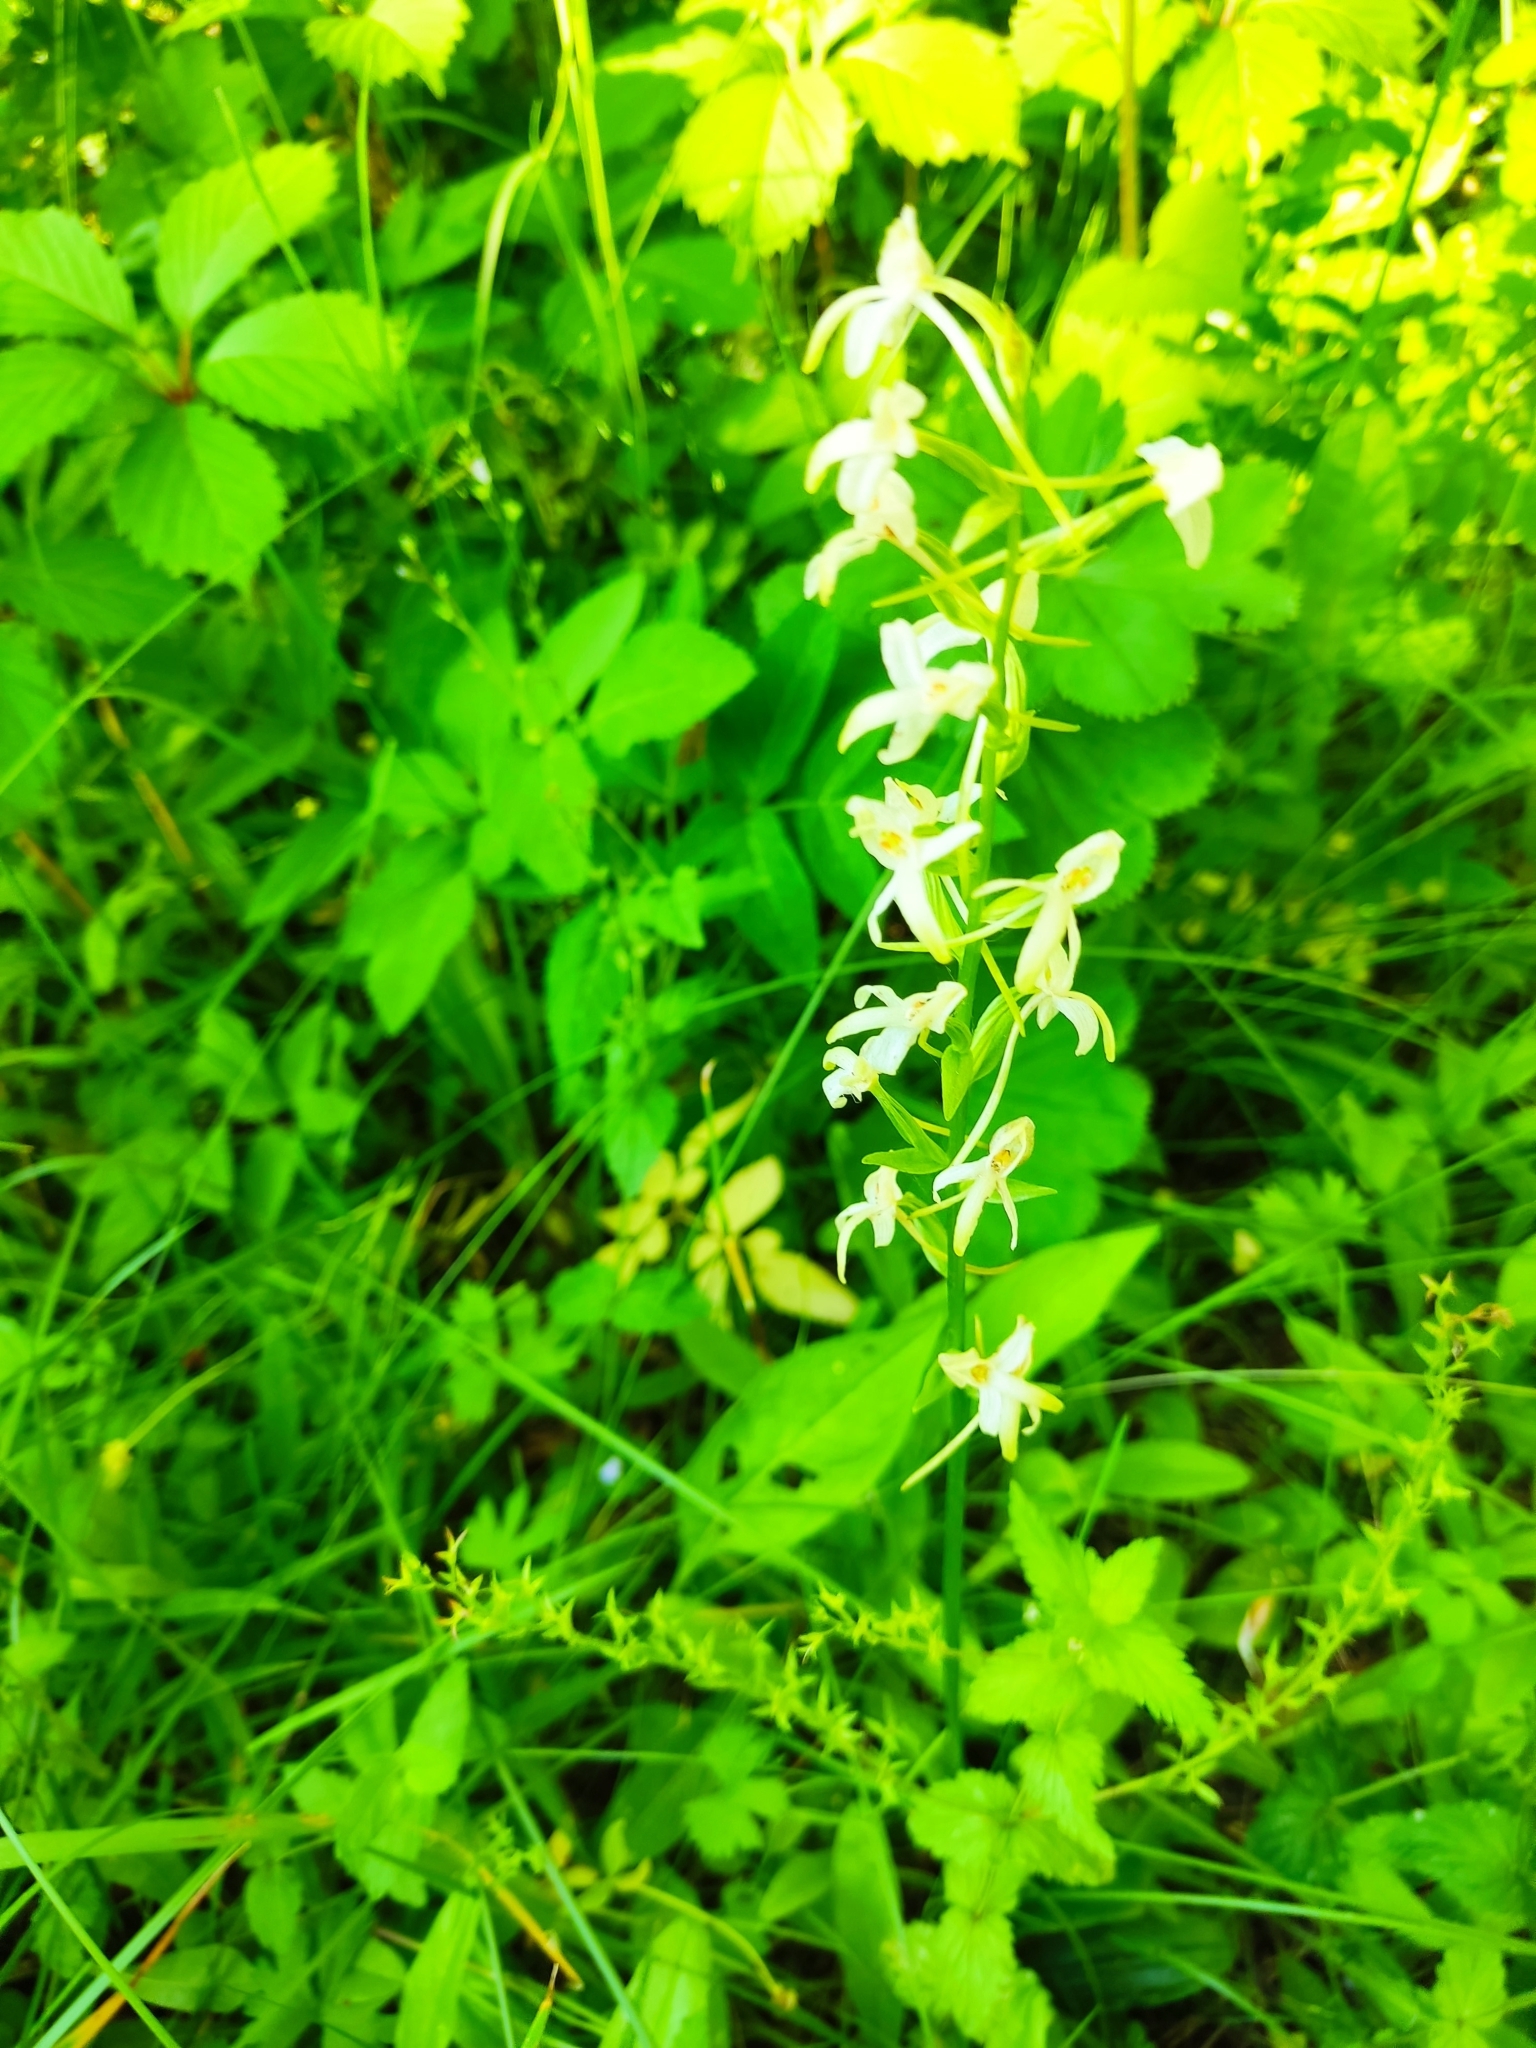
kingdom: Plantae
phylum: Tracheophyta
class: Liliopsida
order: Asparagales
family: Orchidaceae
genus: Platanthera
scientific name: Platanthera bifolia
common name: Lesser butterfly-orchid
